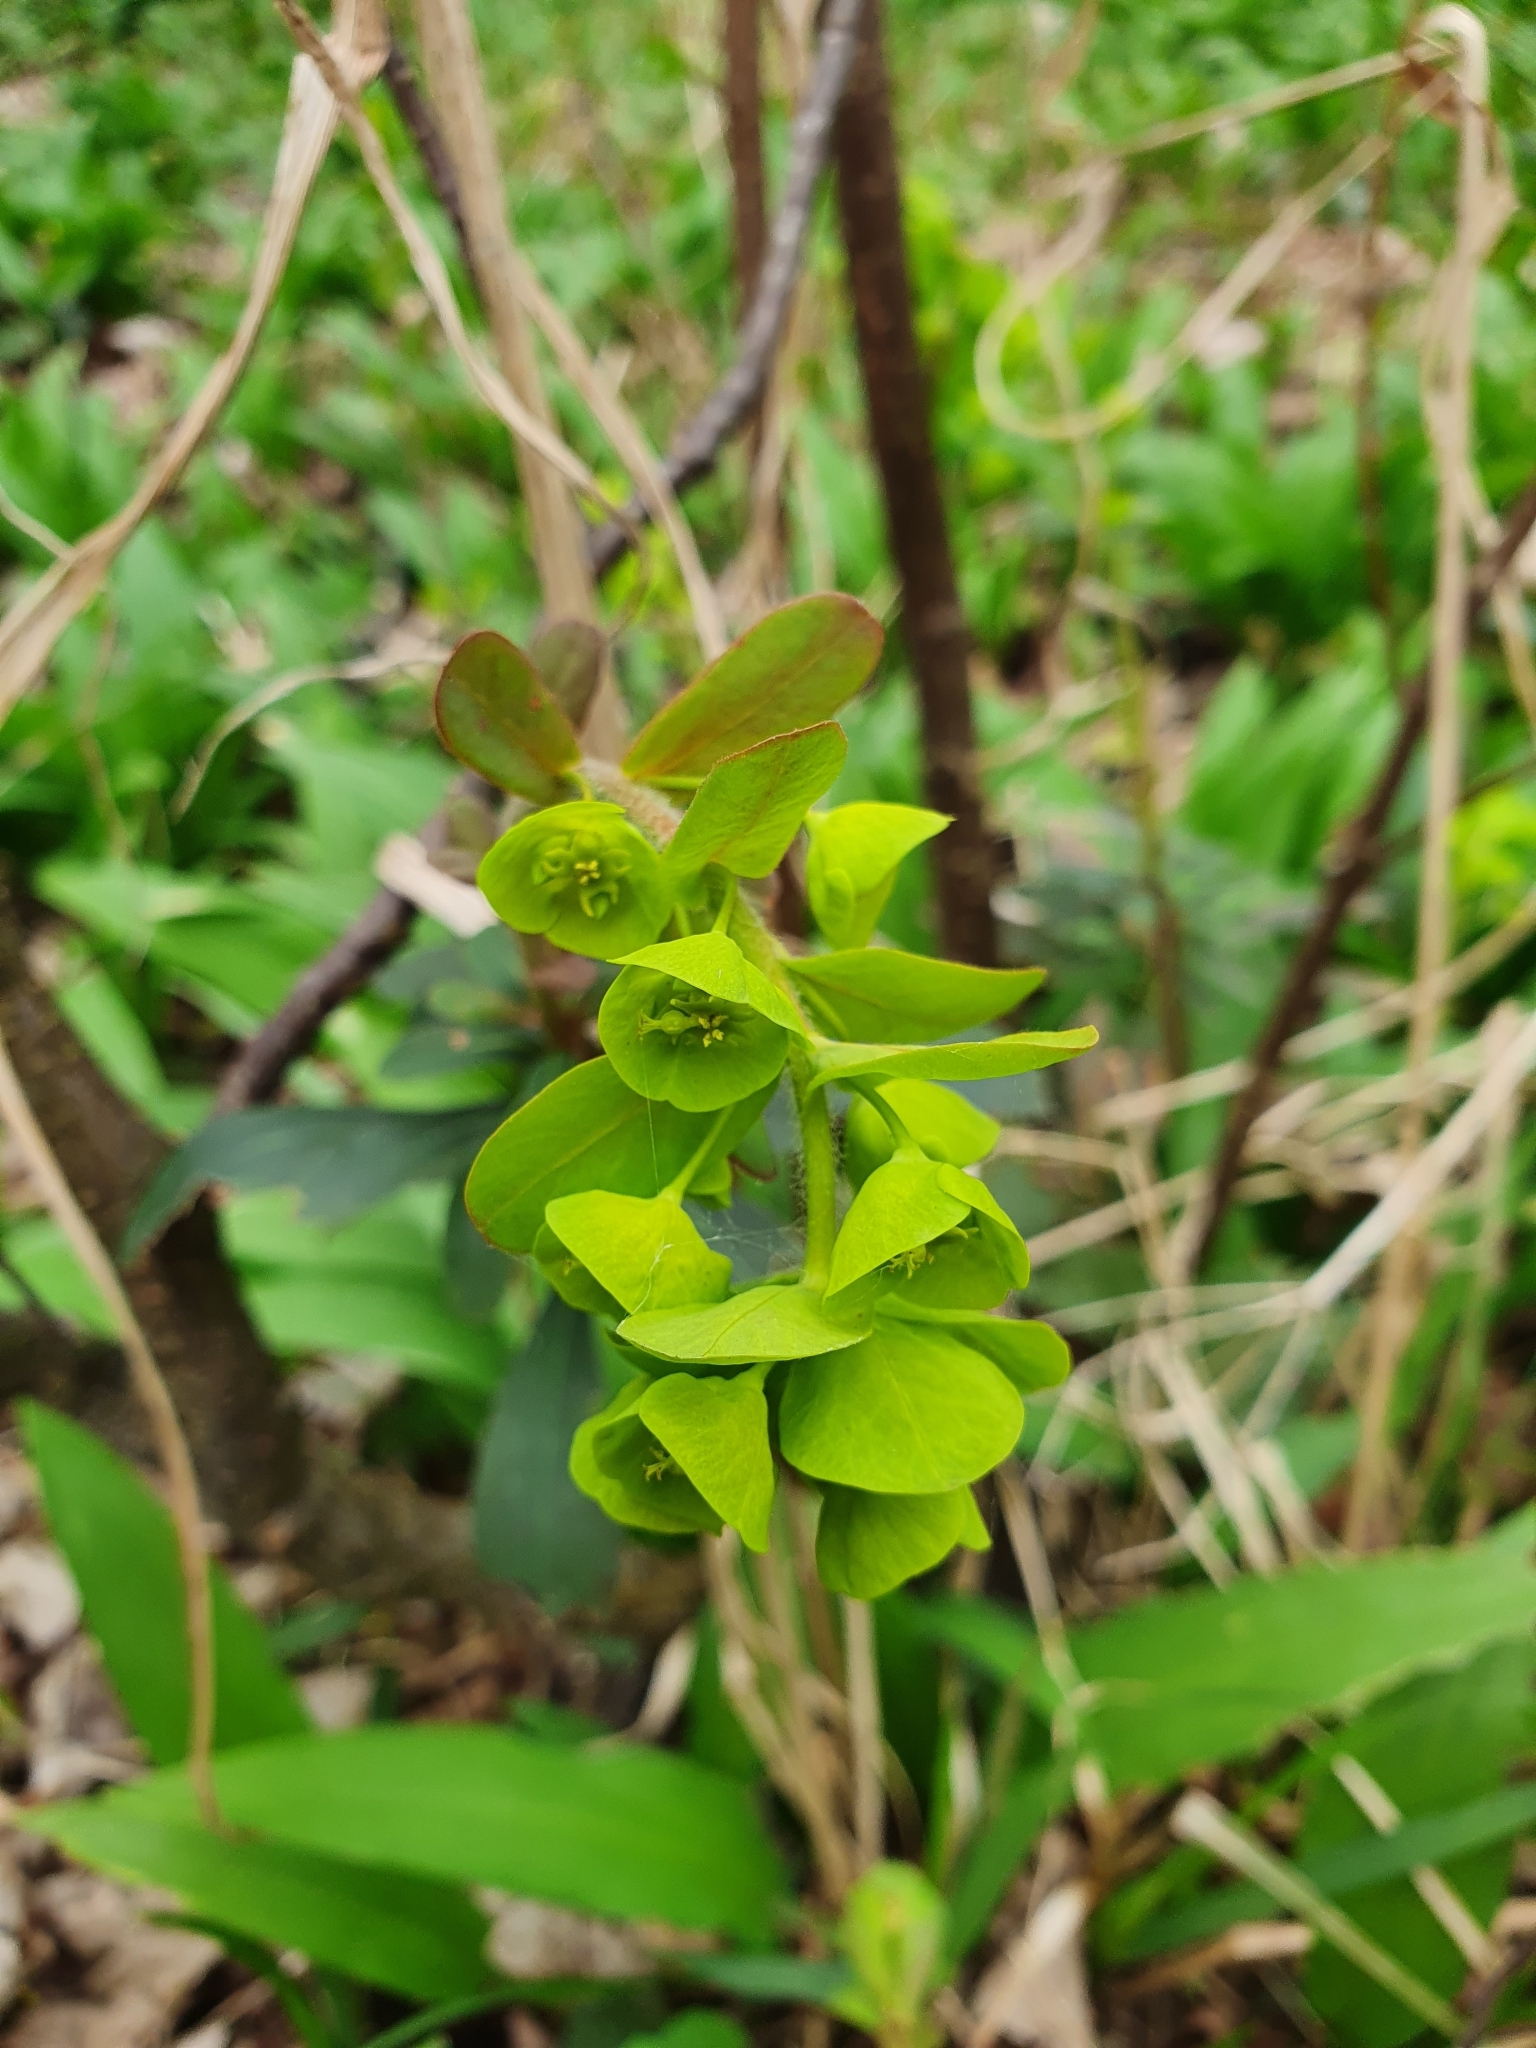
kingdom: Plantae
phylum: Tracheophyta
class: Magnoliopsida
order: Malpighiales
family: Euphorbiaceae
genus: Euphorbia
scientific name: Euphorbia amygdaloides
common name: Wood spurge
